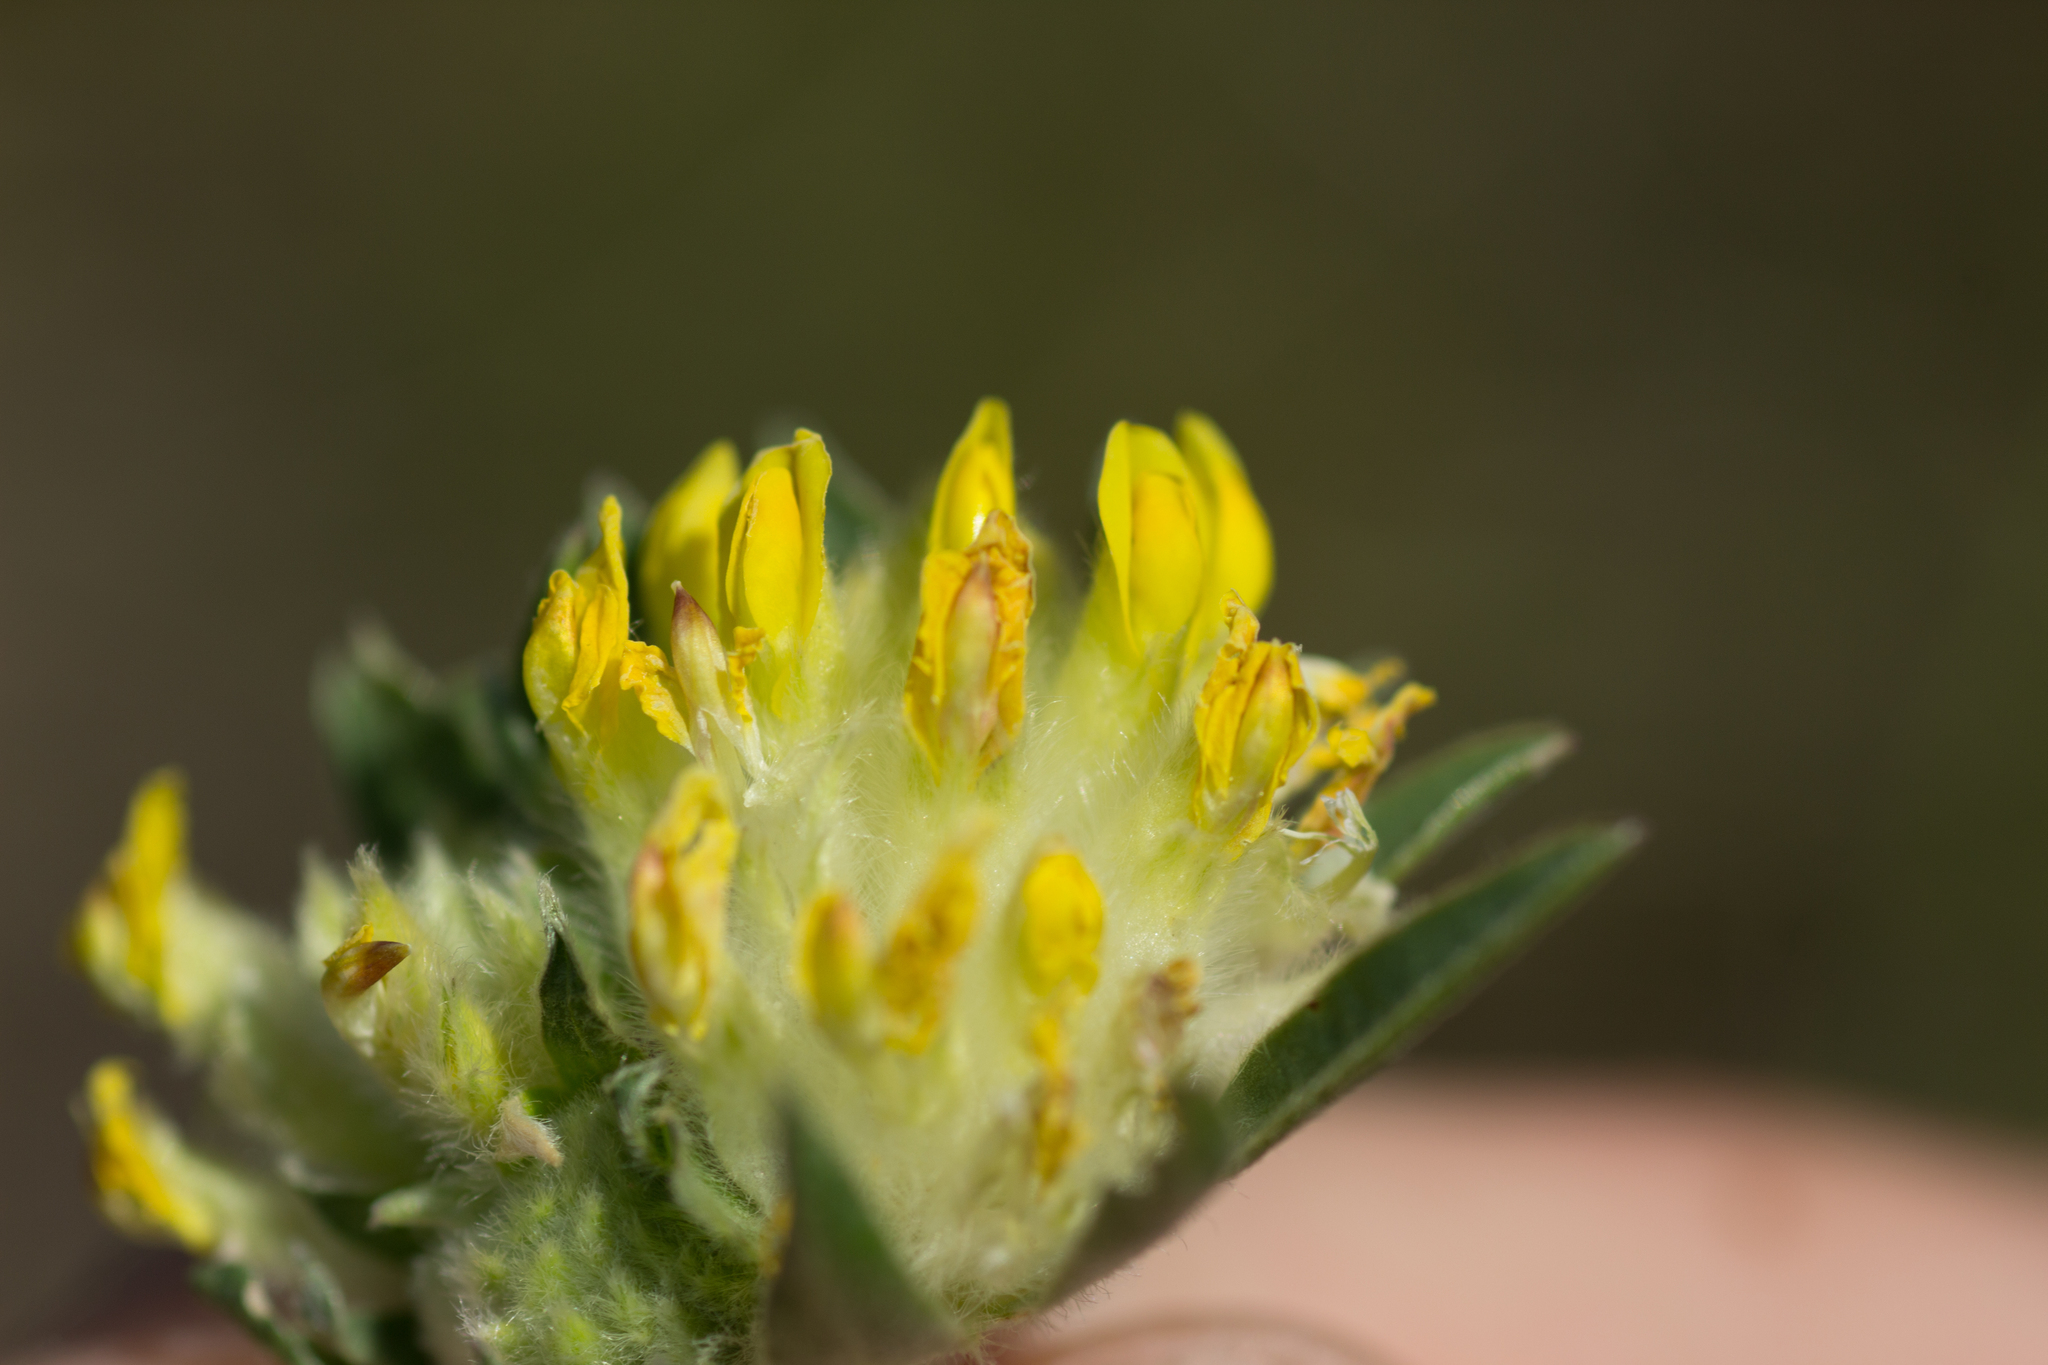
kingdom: Plantae
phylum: Tracheophyta
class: Magnoliopsida
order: Fabales
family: Fabaceae
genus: Anthyllis
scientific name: Anthyllis vulneraria
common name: Kidney vetch
